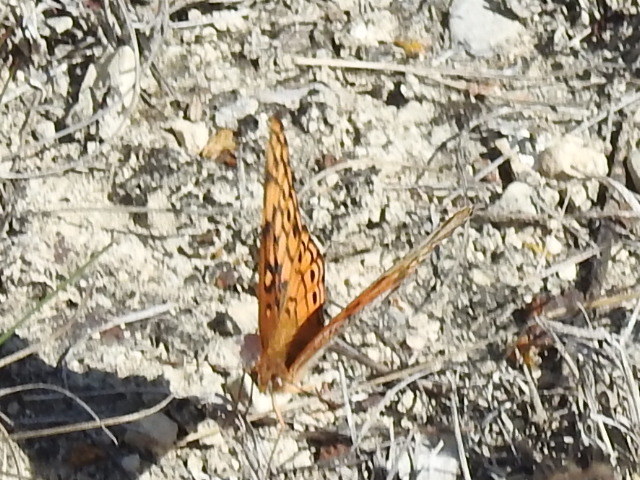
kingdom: Animalia
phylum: Arthropoda
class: Insecta
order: Lepidoptera
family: Nymphalidae
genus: Euptoieta
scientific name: Euptoieta claudia
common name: Variegated fritillary
